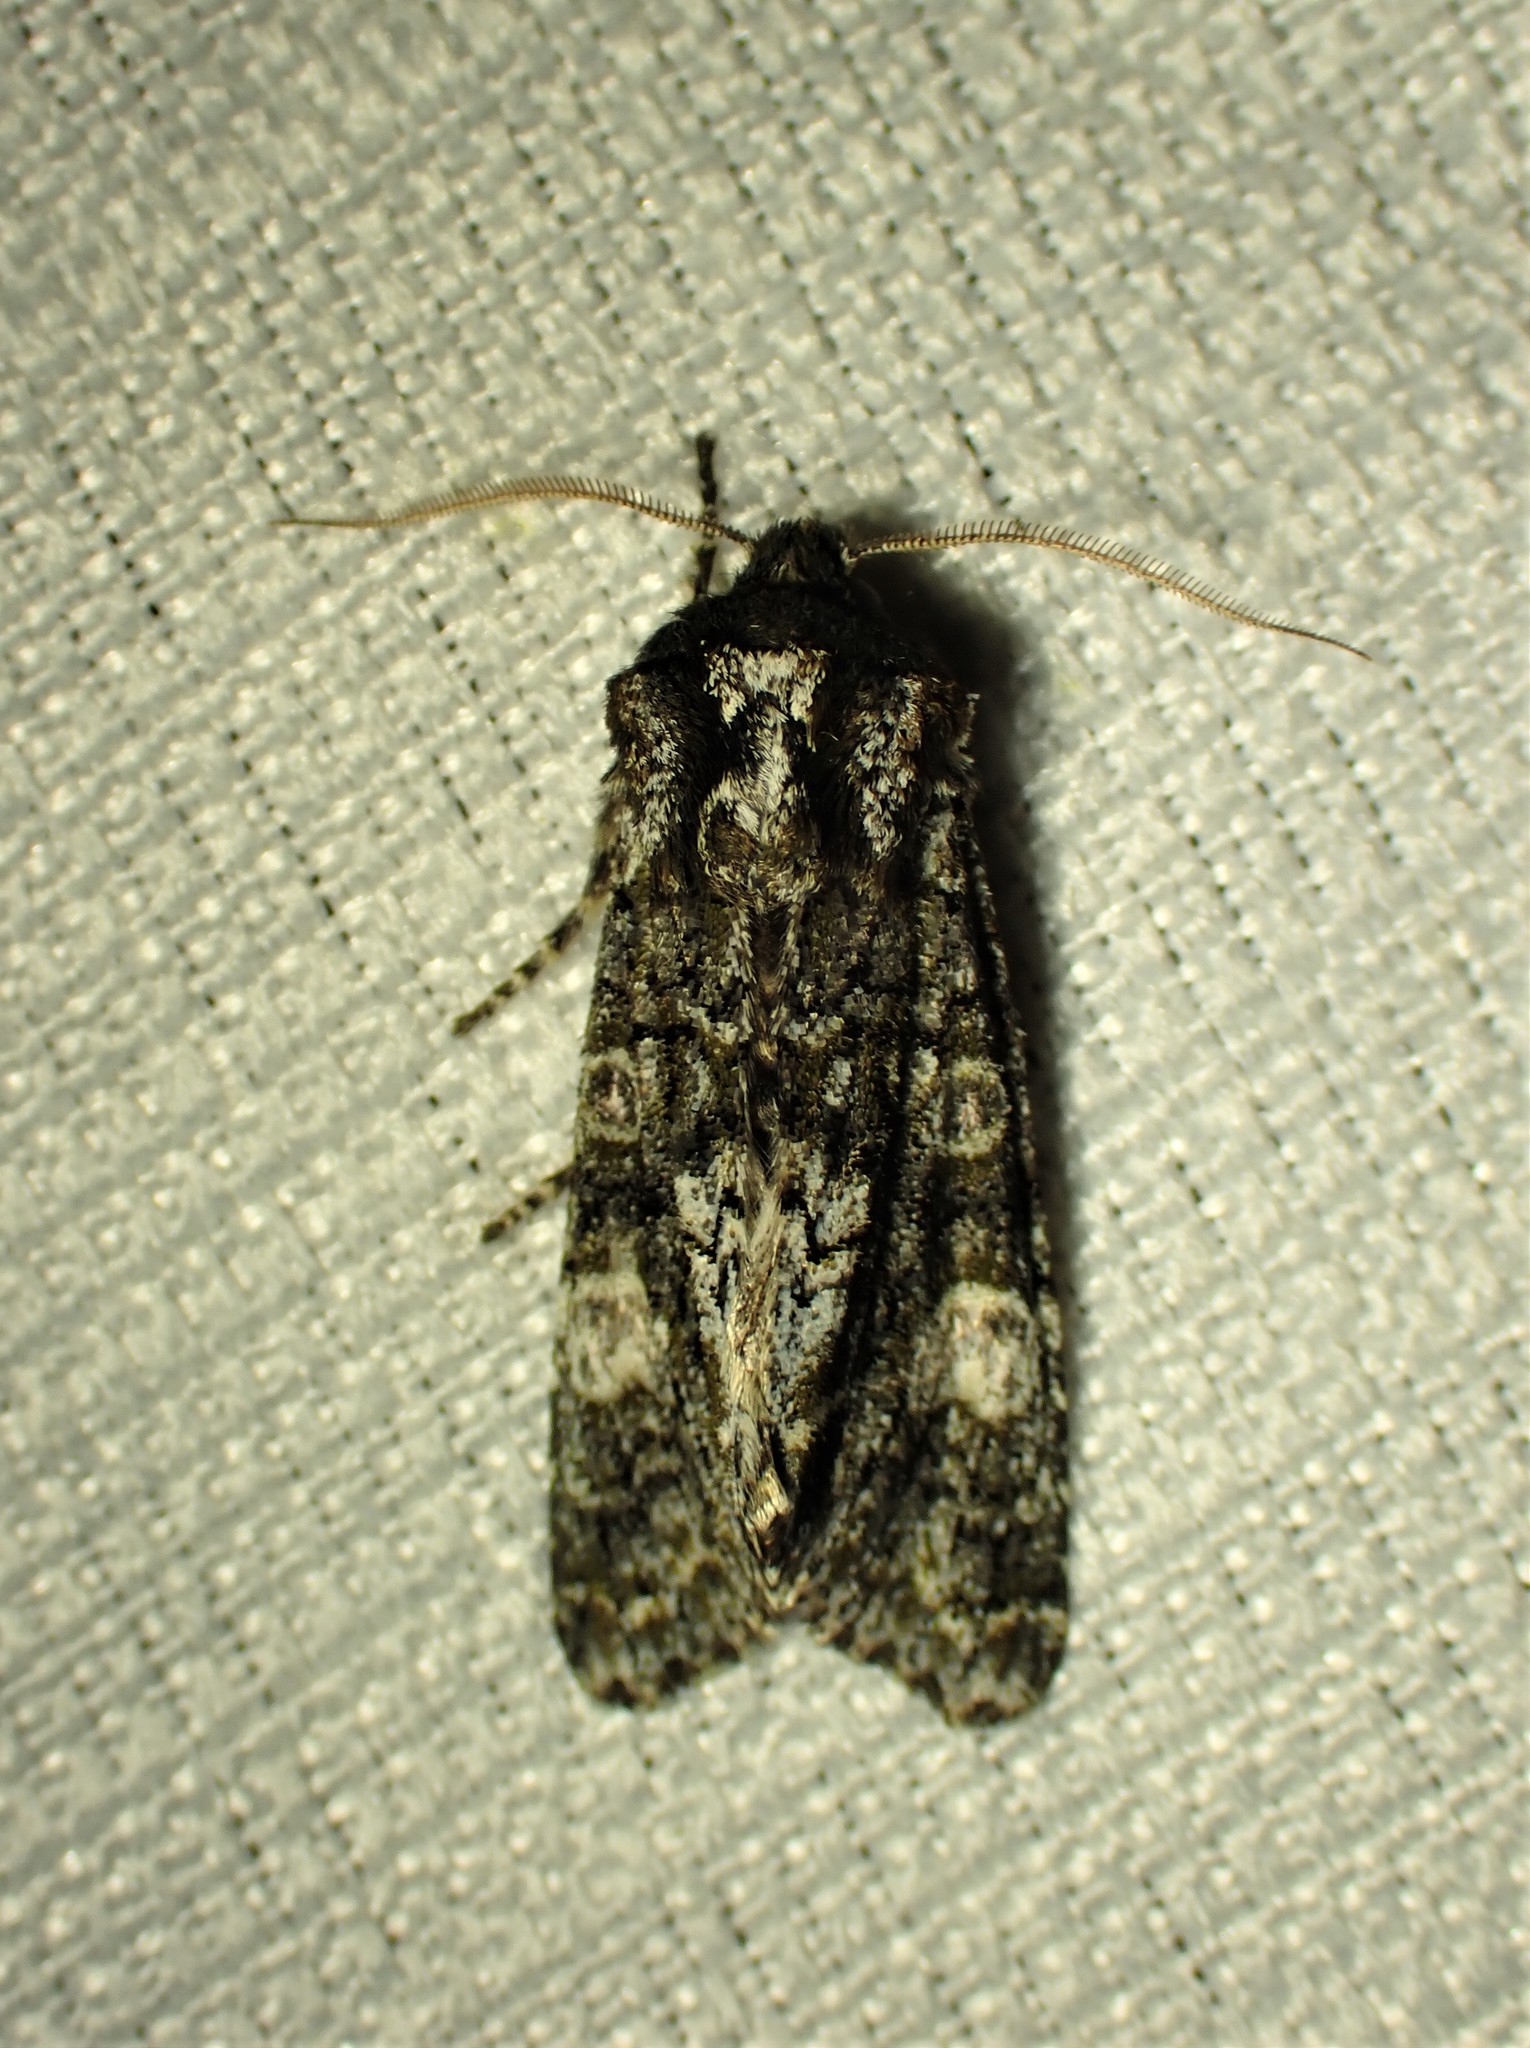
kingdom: Animalia
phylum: Arthropoda
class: Insecta
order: Lepidoptera
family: Noctuidae
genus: Psaphida
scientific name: Psaphida grotei
